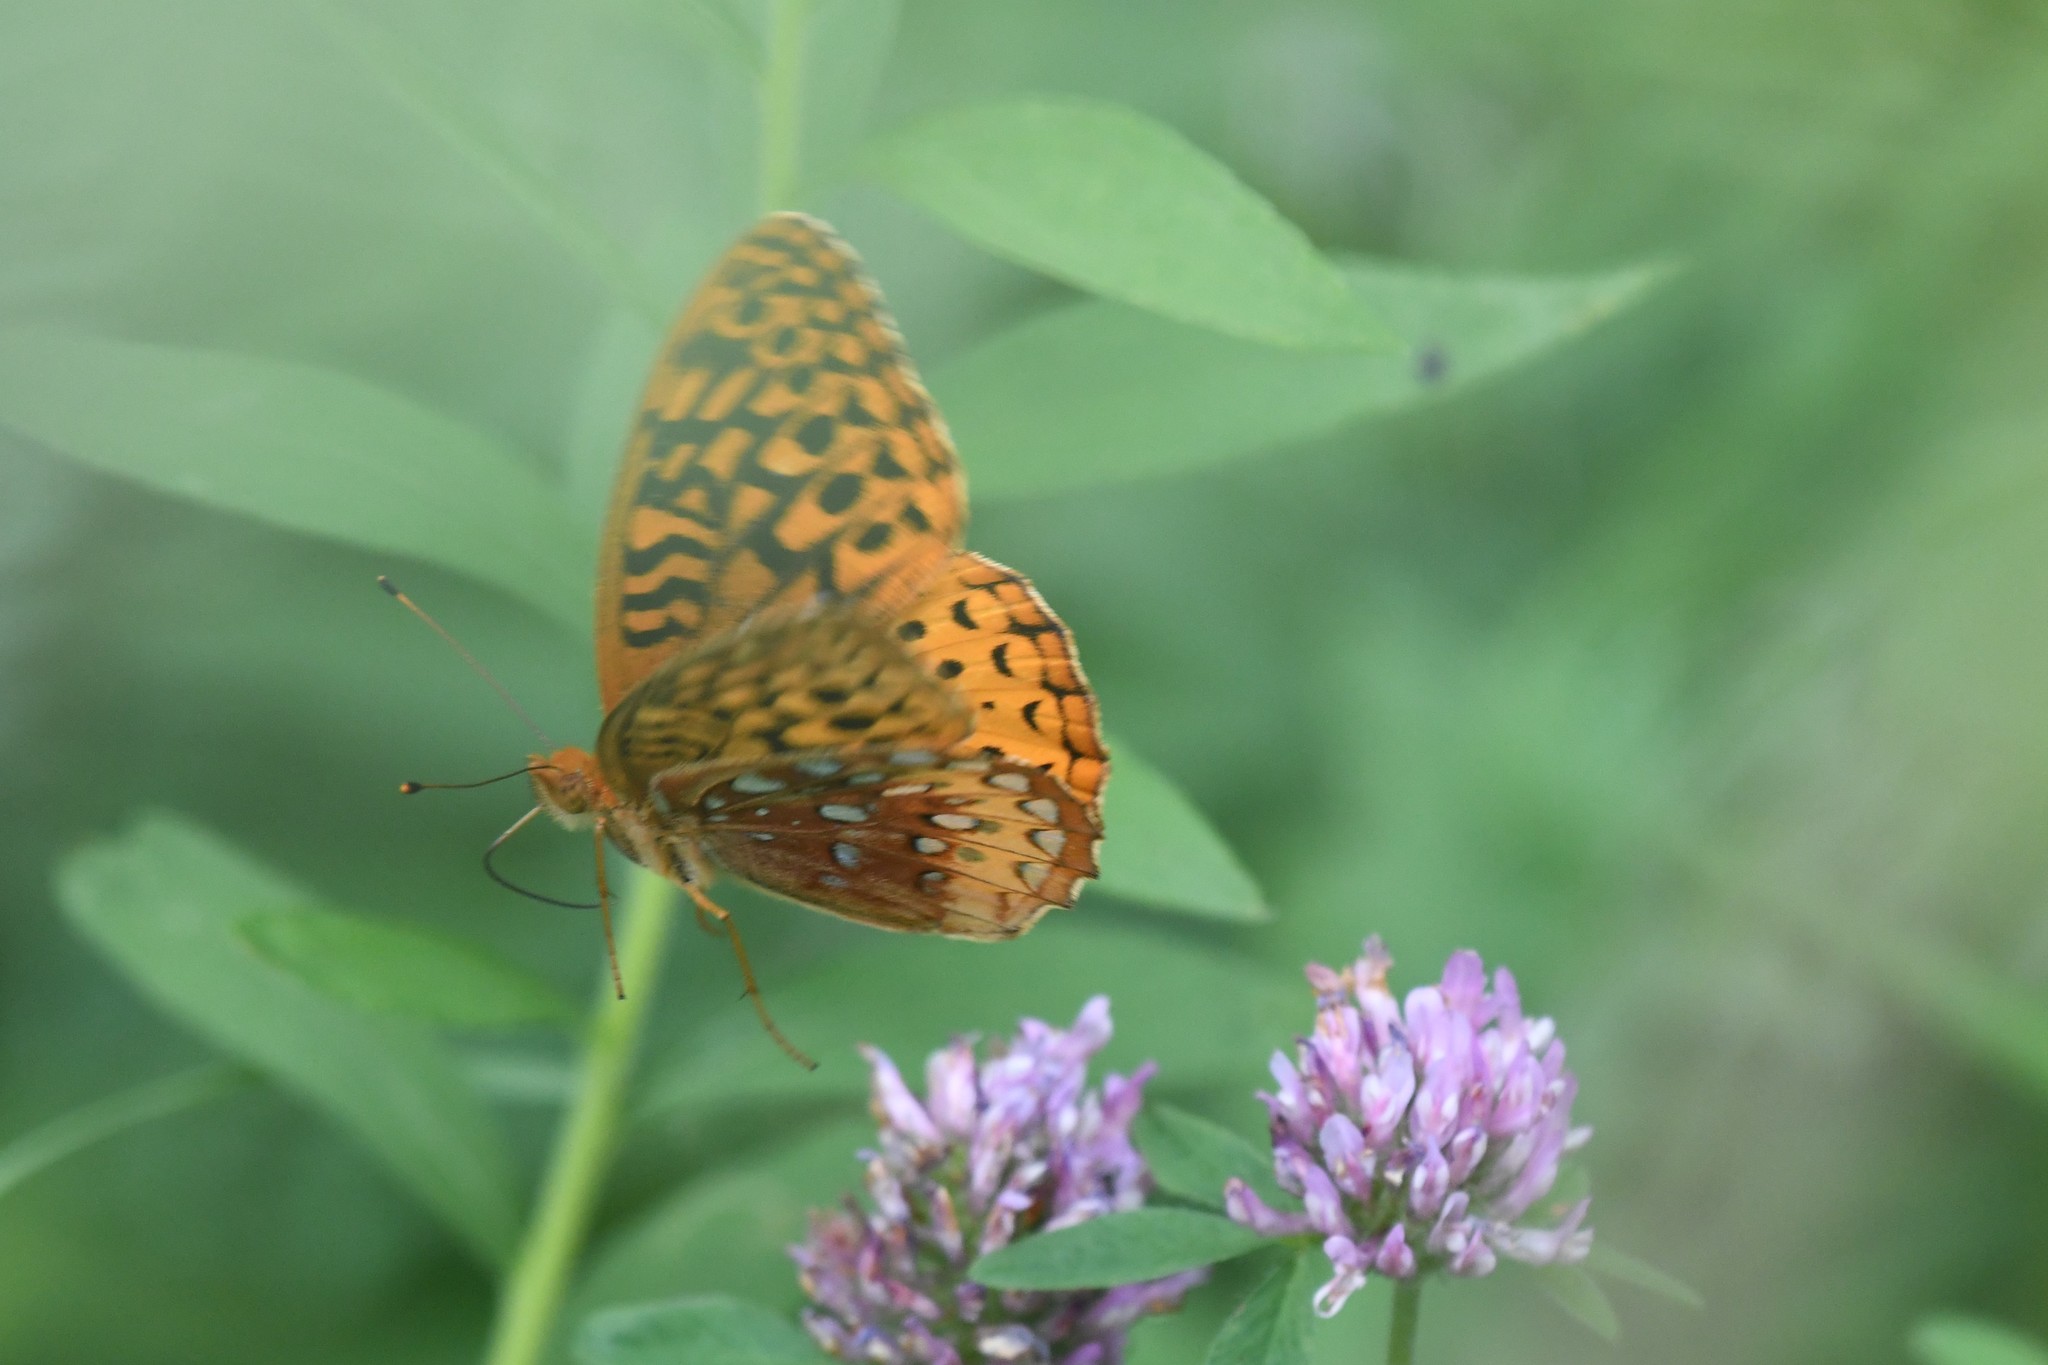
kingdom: Animalia
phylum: Arthropoda
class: Insecta
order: Lepidoptera
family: Nymphalidae
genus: Speyeria
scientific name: Speyeria cybele
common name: Great spangled fritillary
